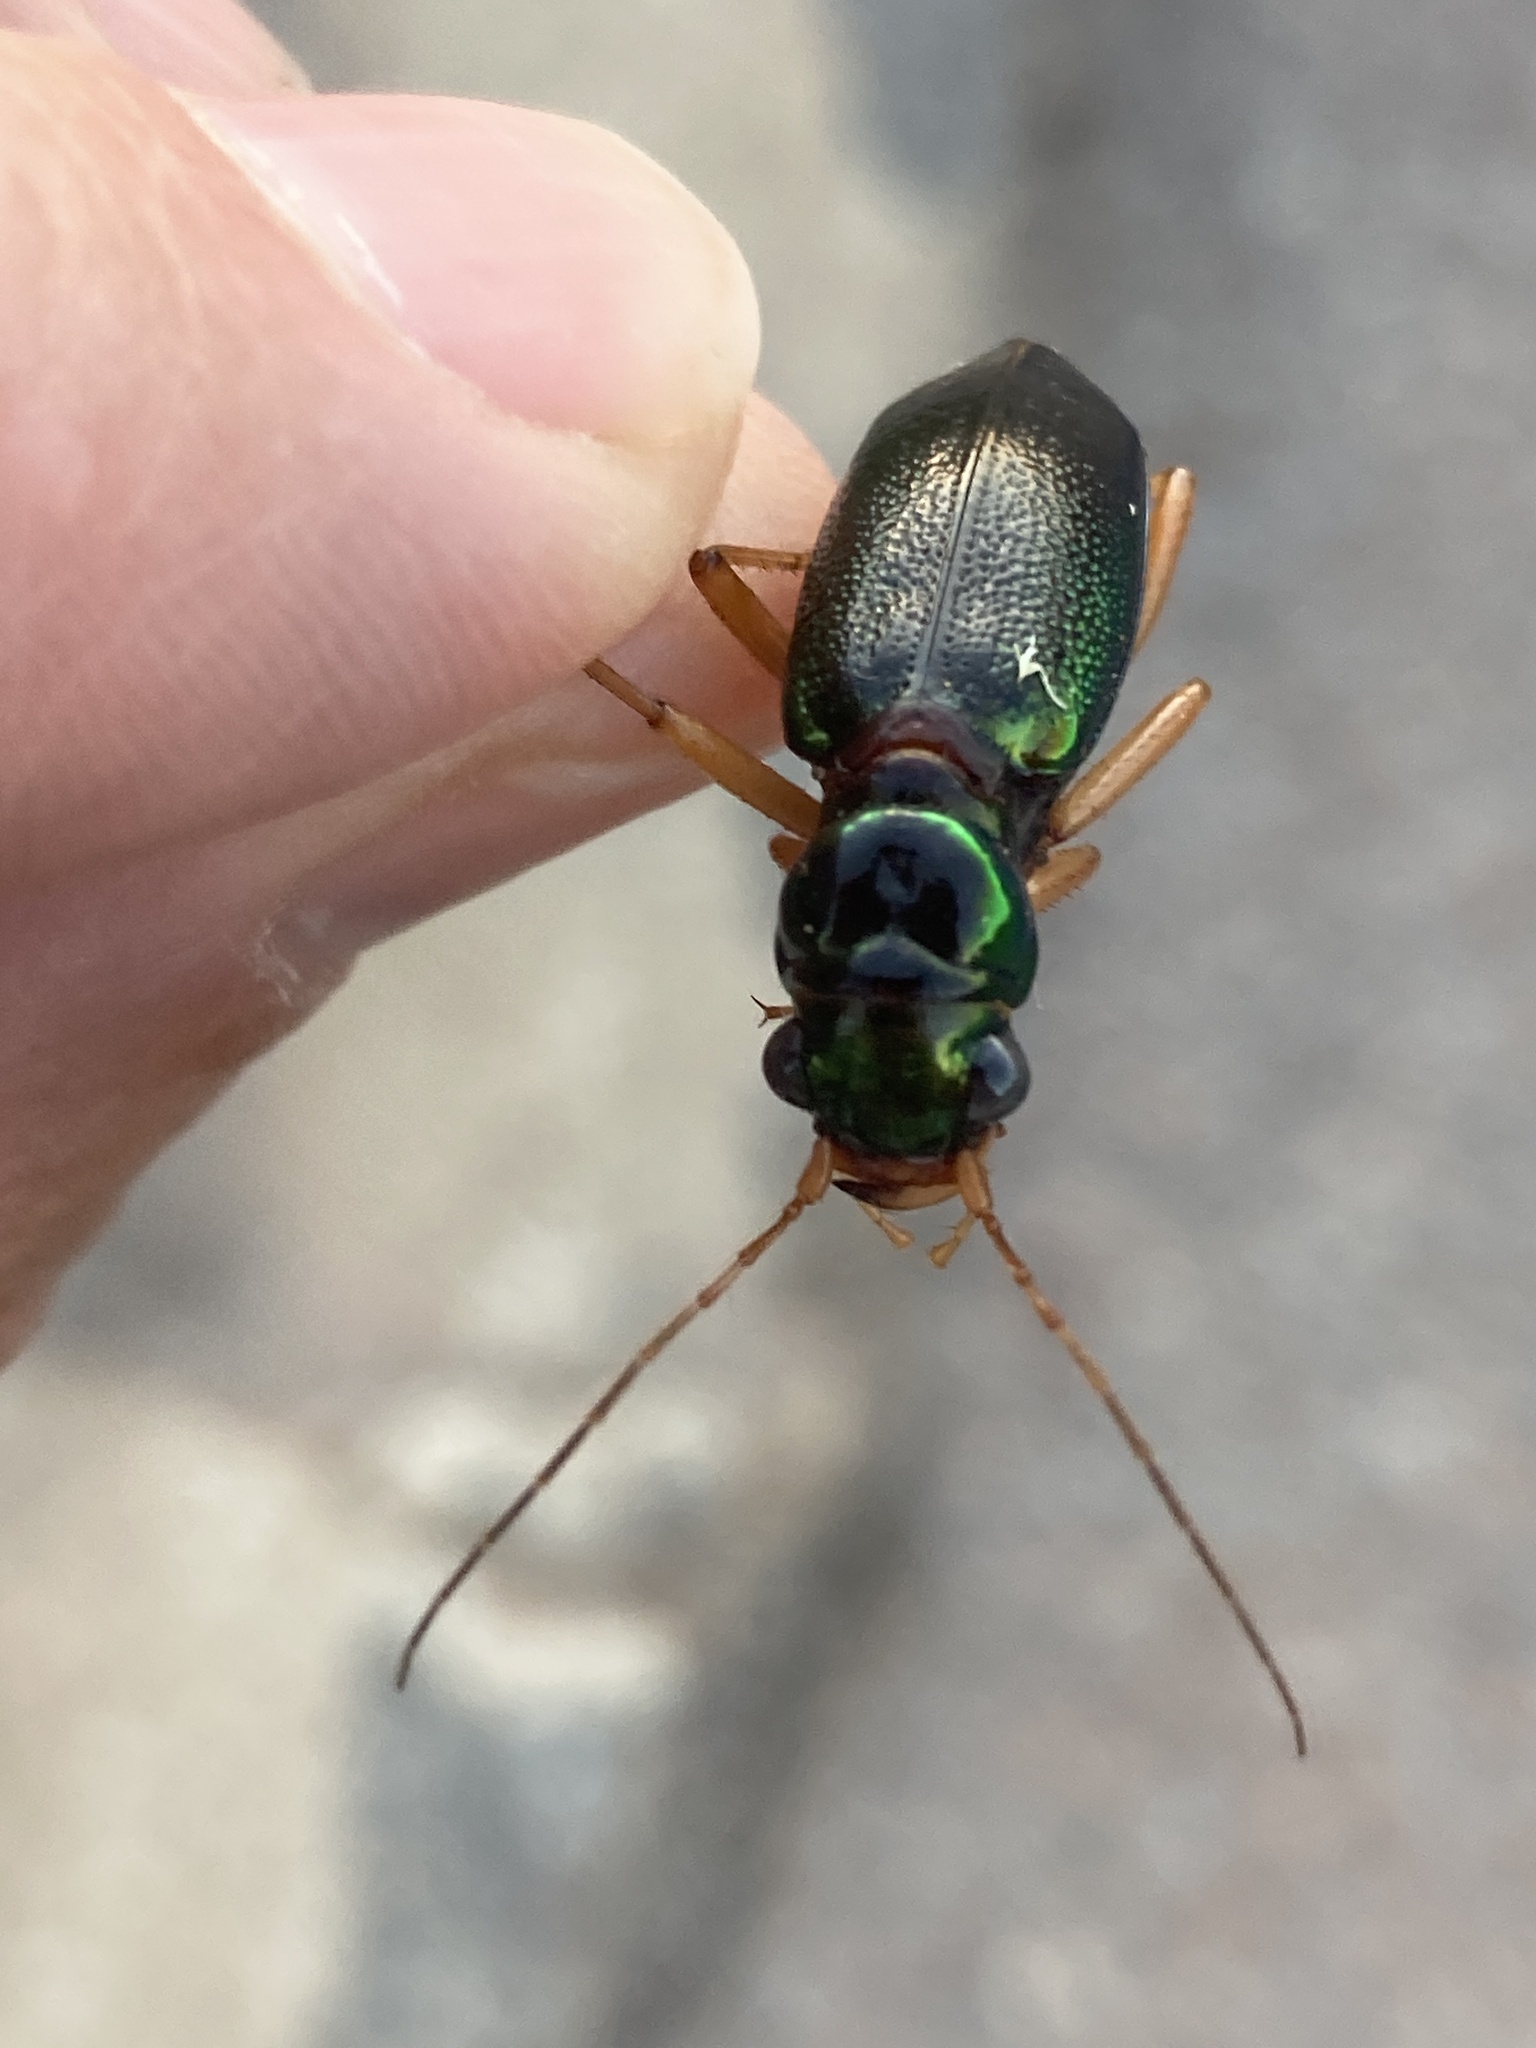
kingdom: Animalia
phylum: Arthropoda
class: Insecta
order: Coleoptera
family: Carabidae
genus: Tetracha
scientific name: Tetracha virginica
